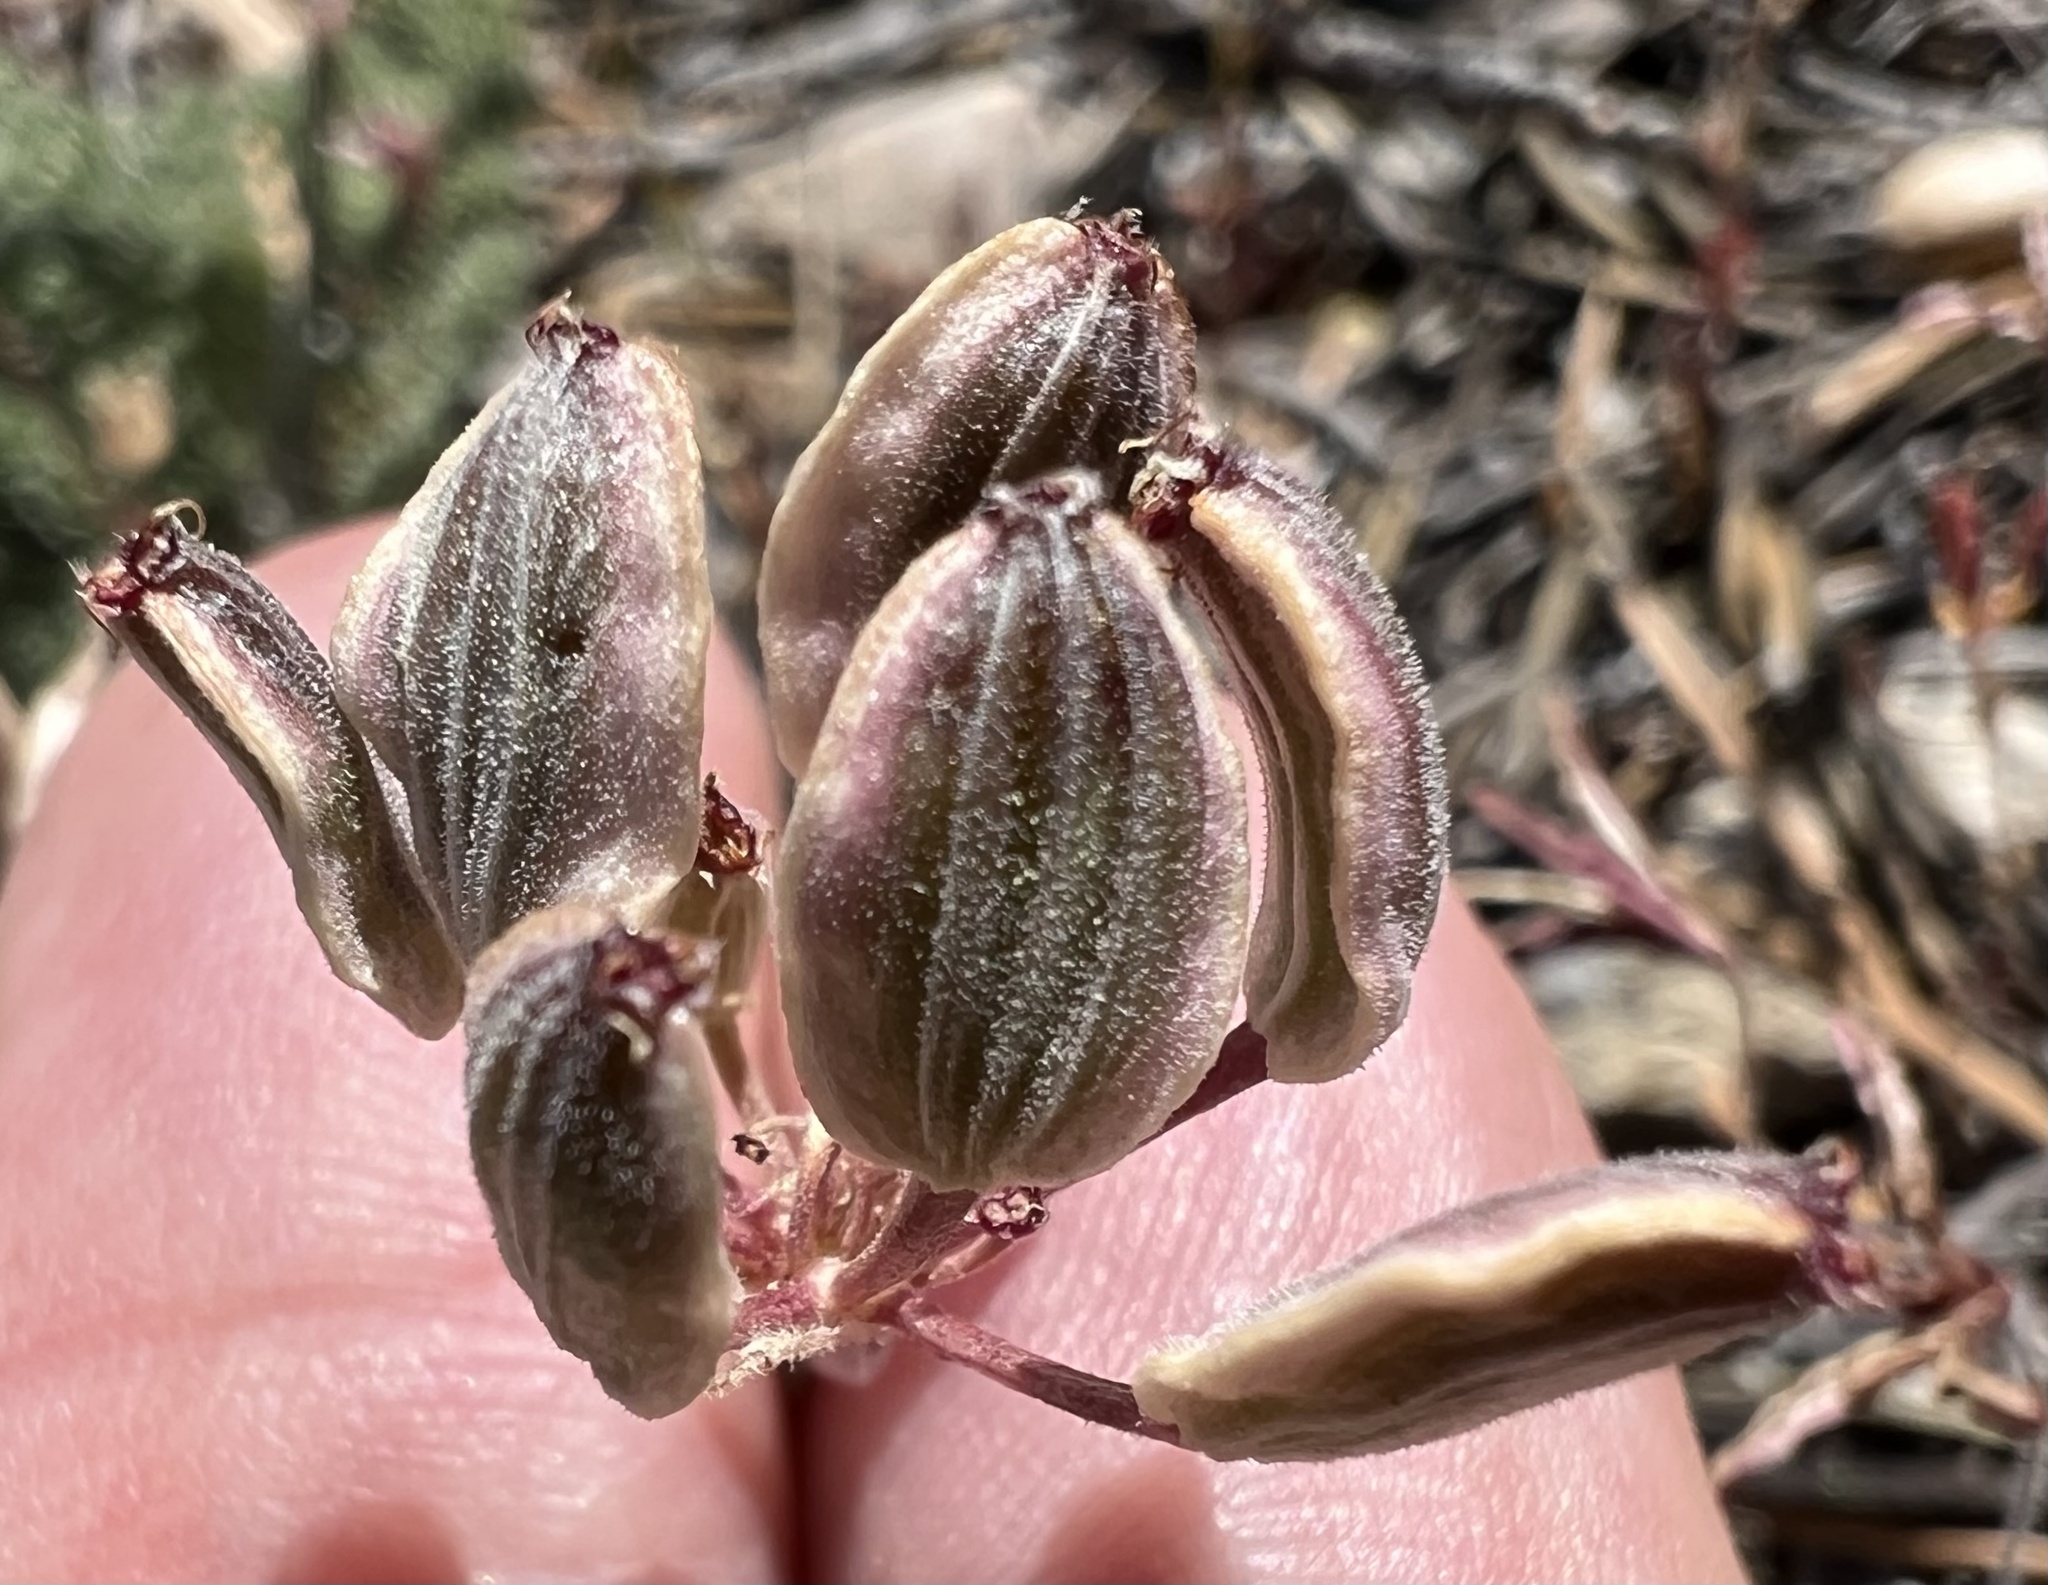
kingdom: Plantae
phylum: Tracheophyta
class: Magnoliopsida
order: Apiales
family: Apiaceae
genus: Lomatium
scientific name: Lomatium foeniculaceum
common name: Desert-parsley
